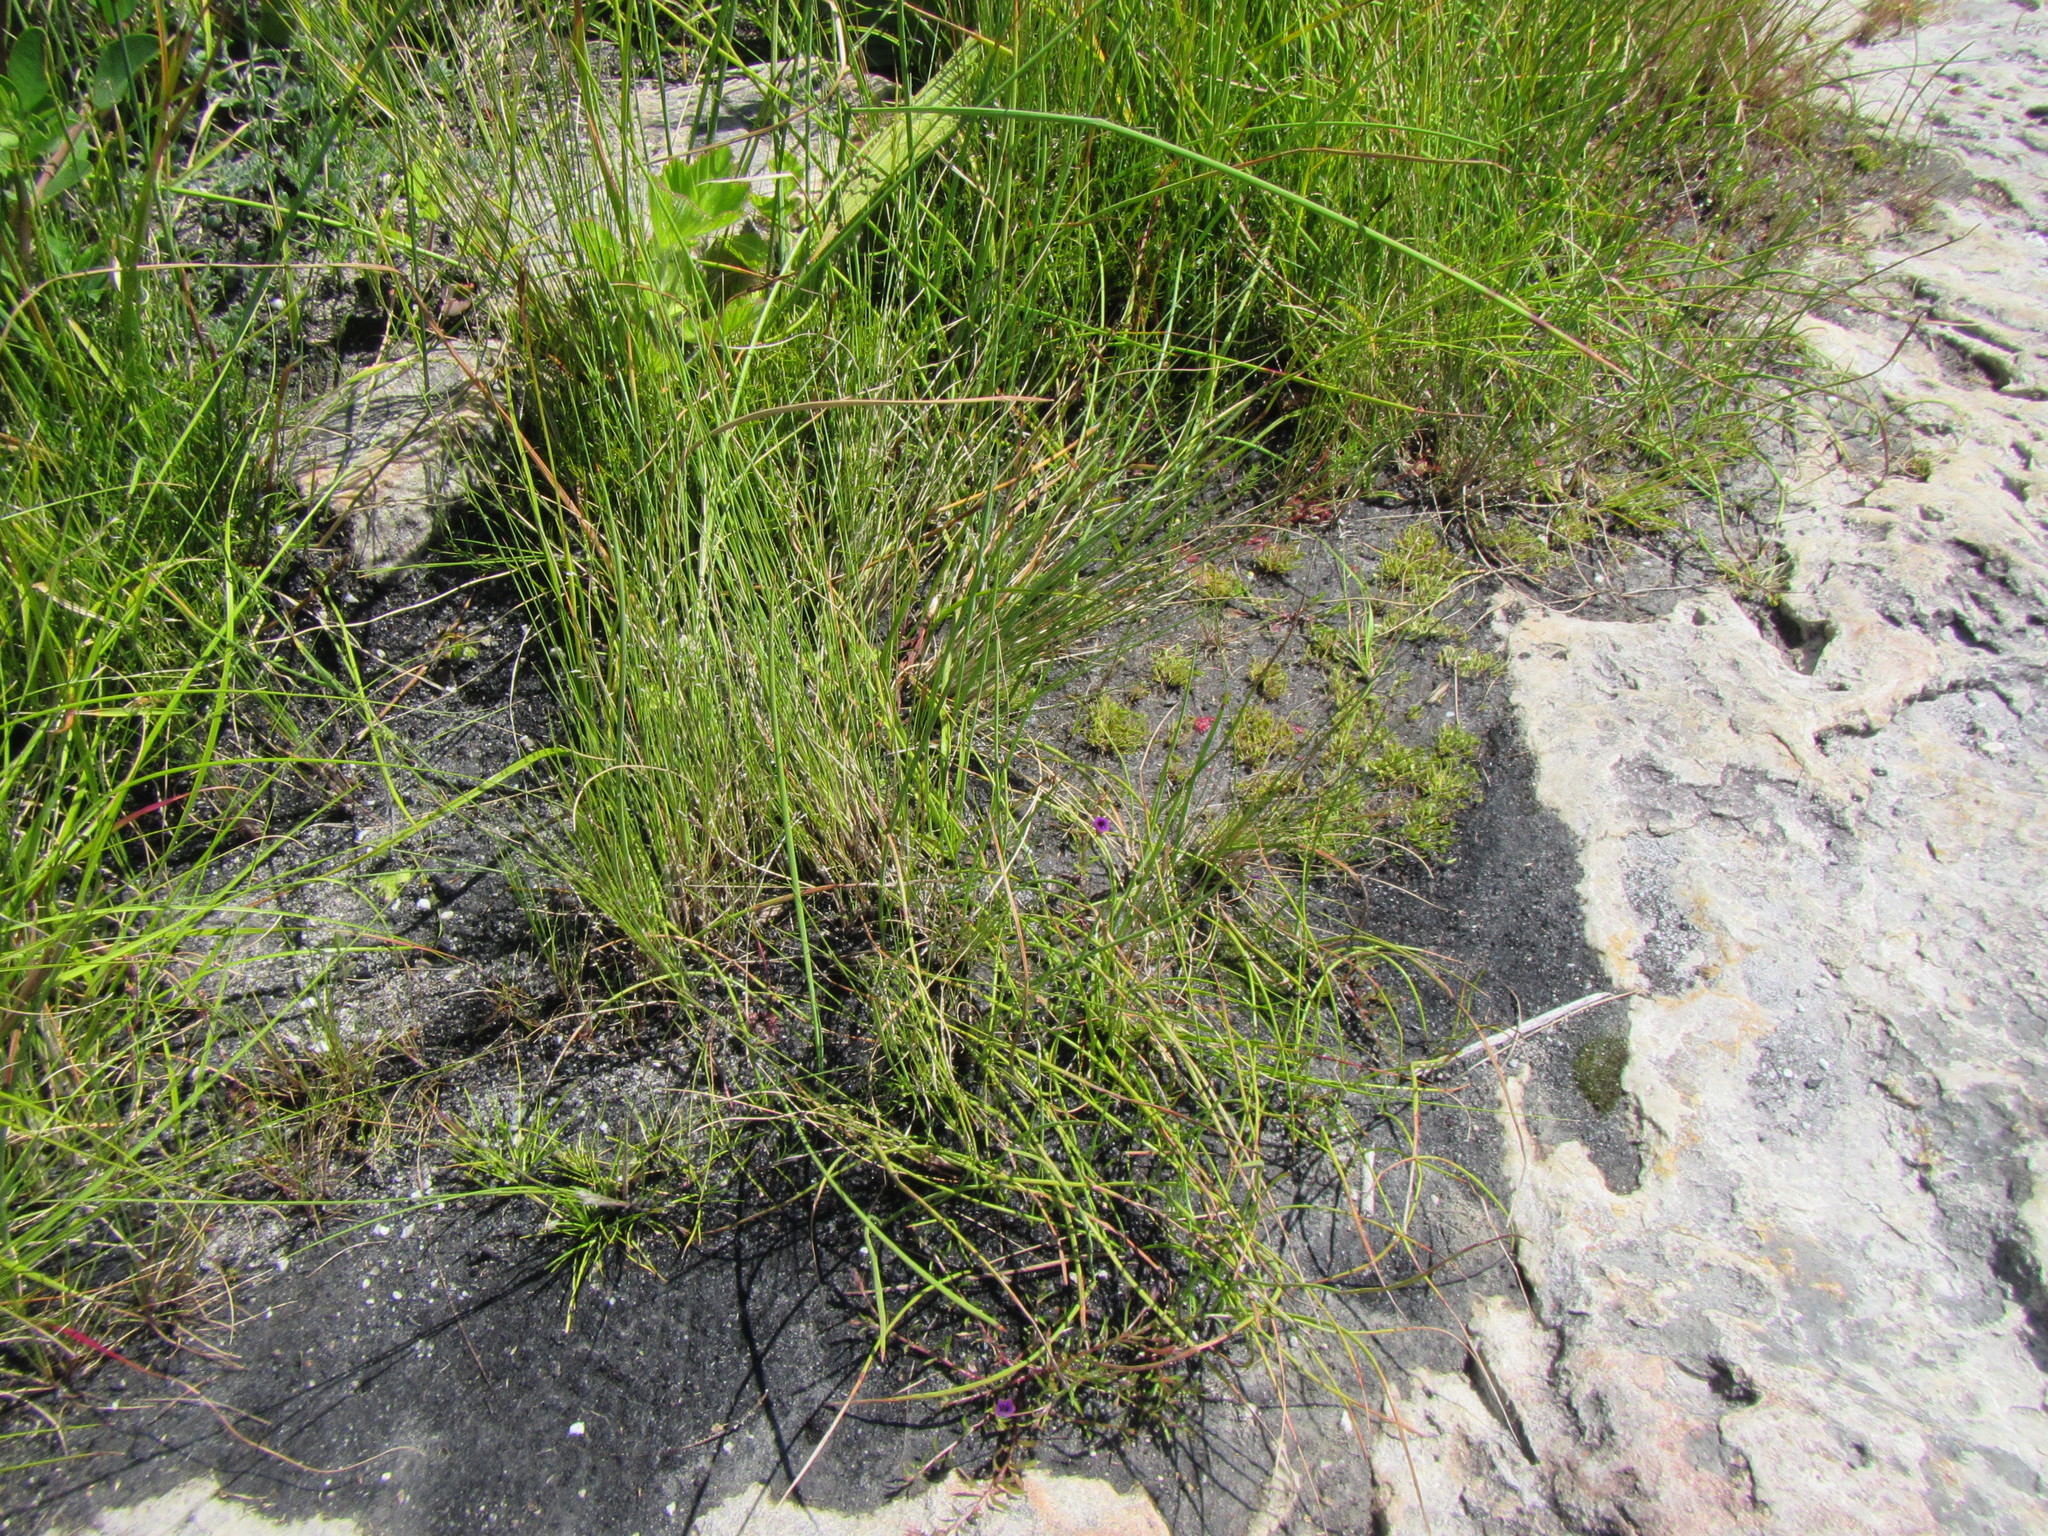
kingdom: Plantae
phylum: Tracheophyta
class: Liliopsida
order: Poales
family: Cyperaceae
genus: Isolepis
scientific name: Isolepis levynsiana
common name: Sedge
